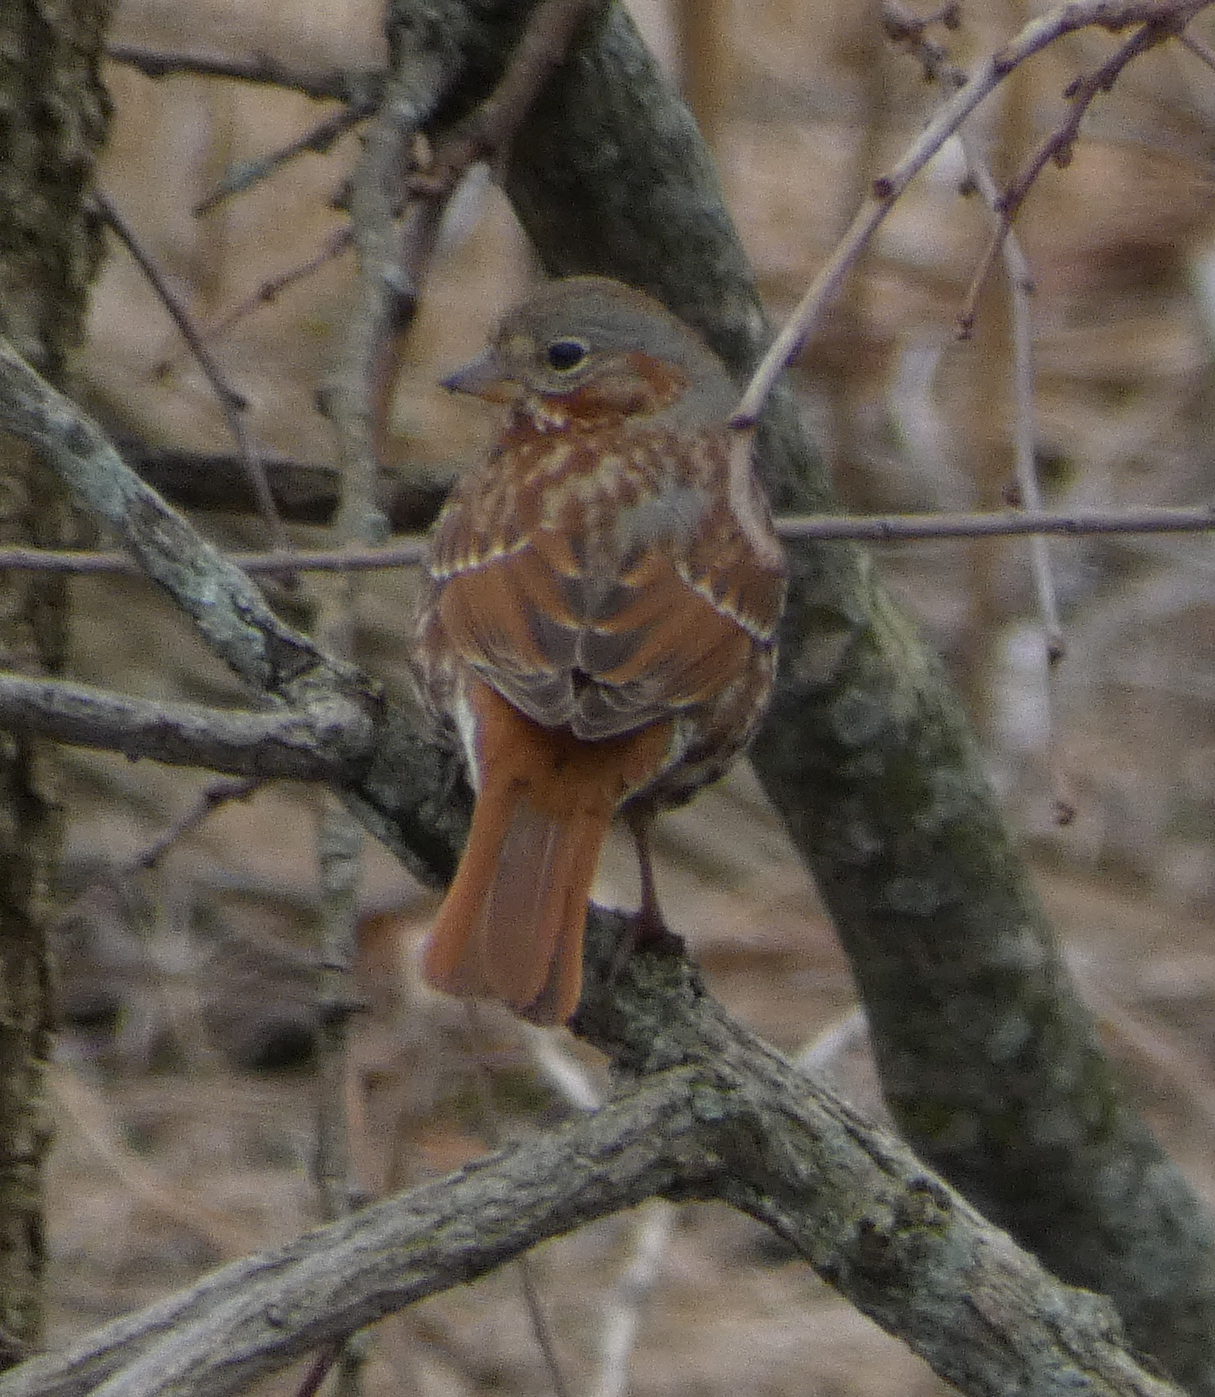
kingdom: Animalia
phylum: Chordata
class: Aves
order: Passeriformes
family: Passerellidae
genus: Passerella
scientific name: Passerella iliaca
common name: Fox sparrow
